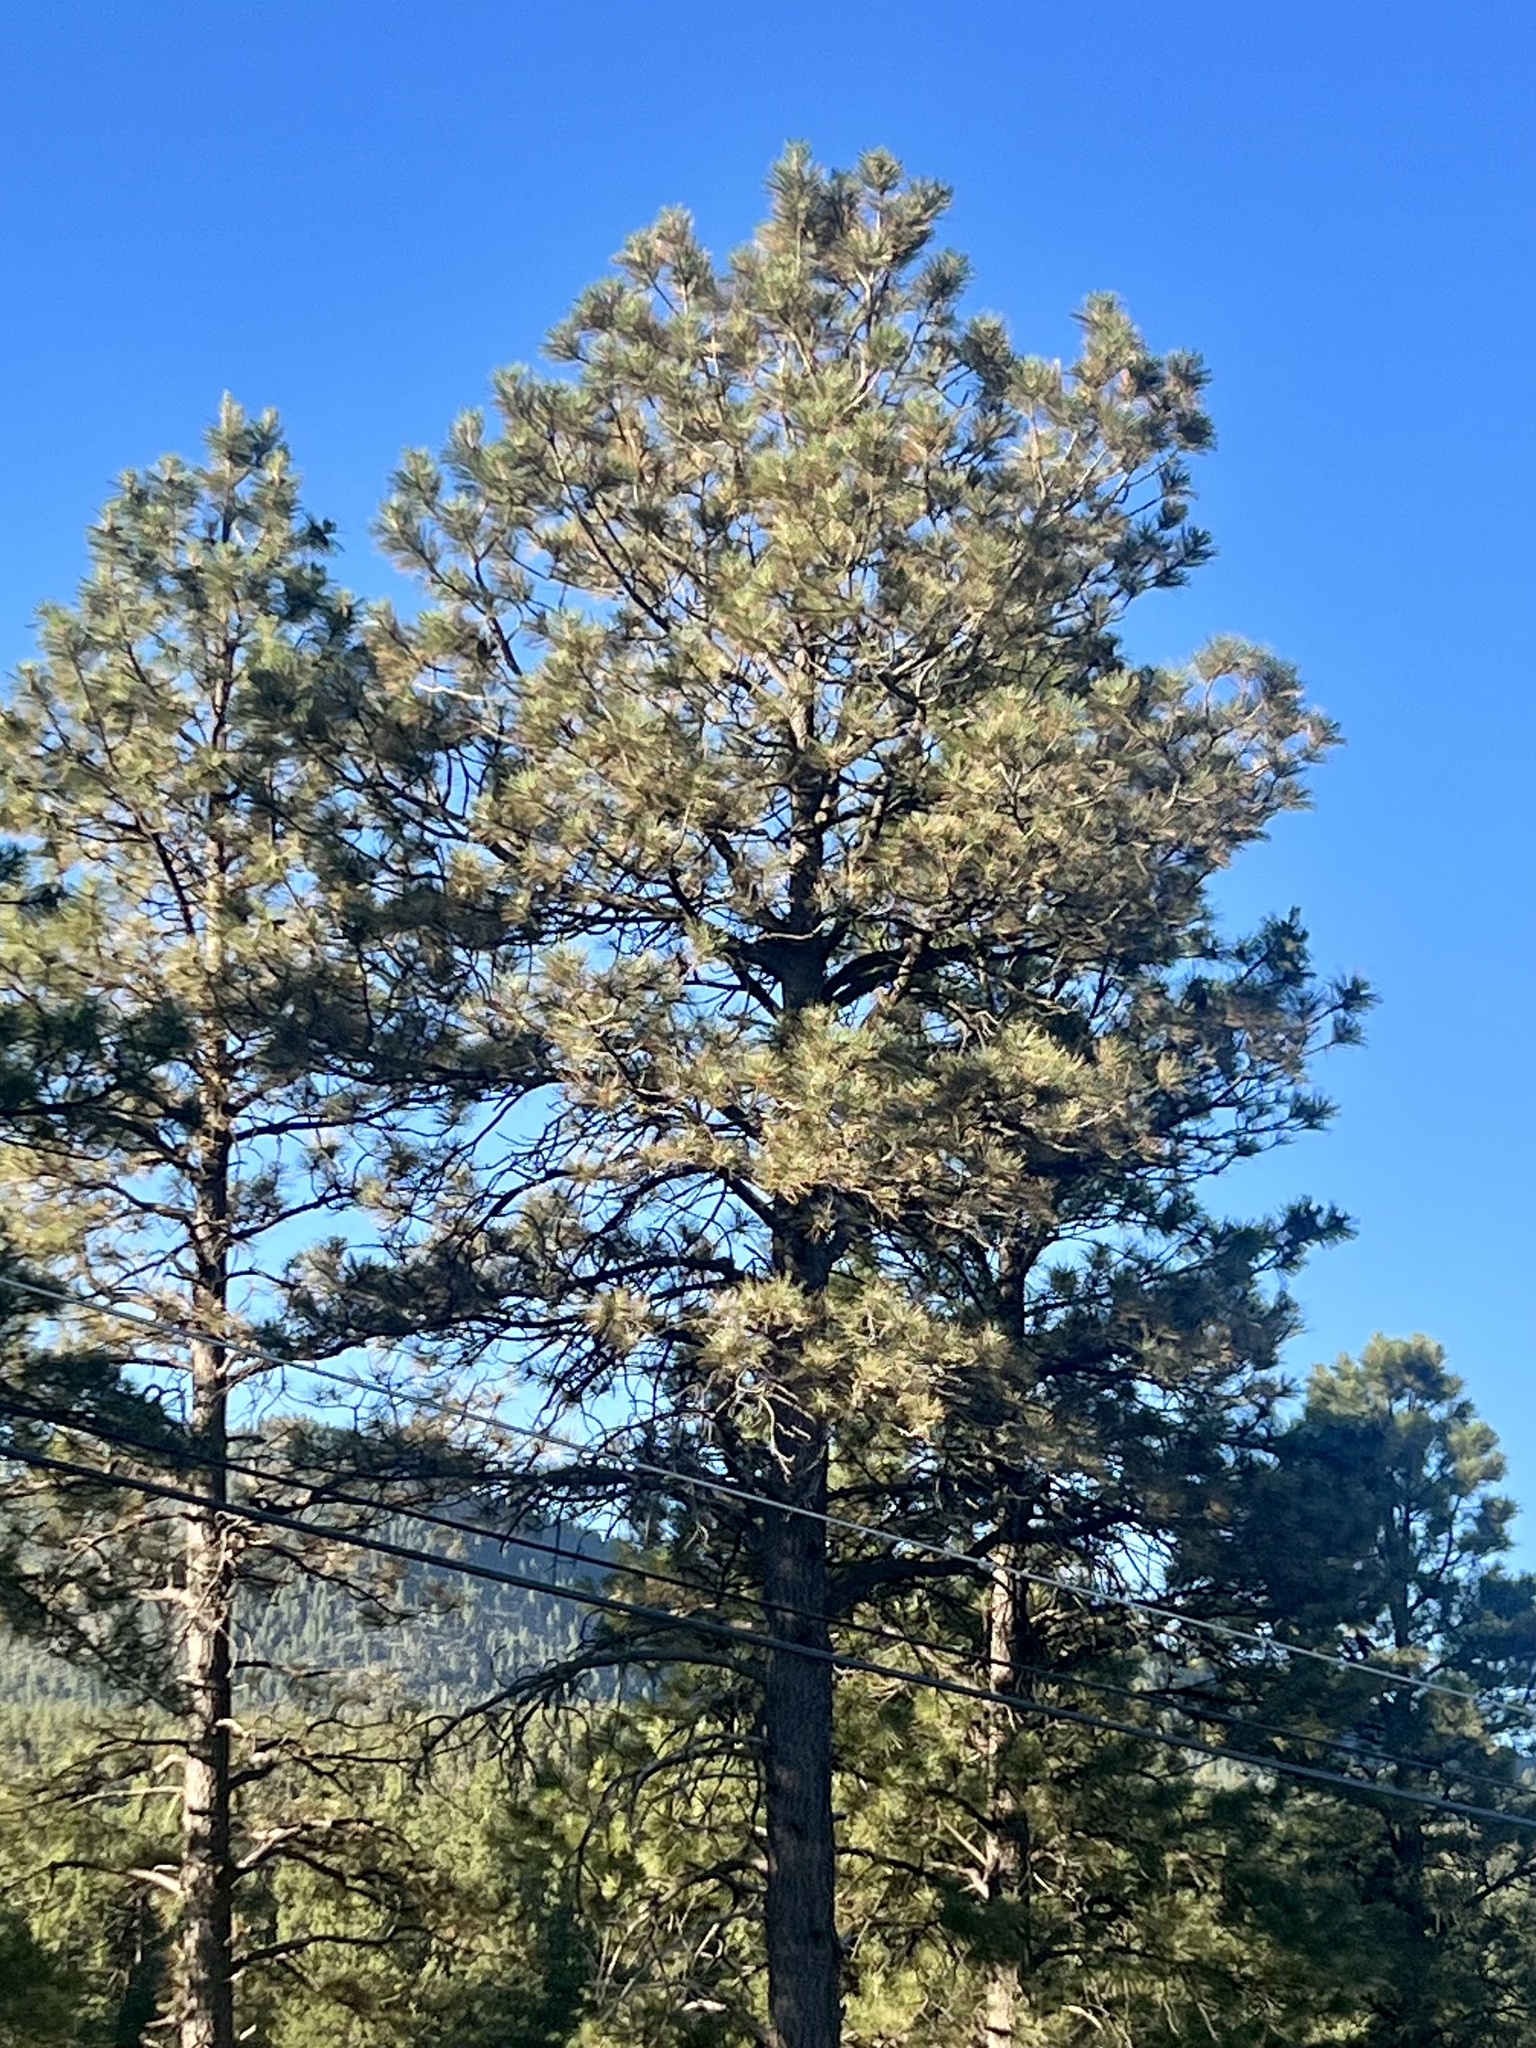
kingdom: Plantae
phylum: Tracheophyta
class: Pinopsida
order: Pinales
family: Pinaceae
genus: Pinus
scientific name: Pinus ponderosa
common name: Western yellow-pine
